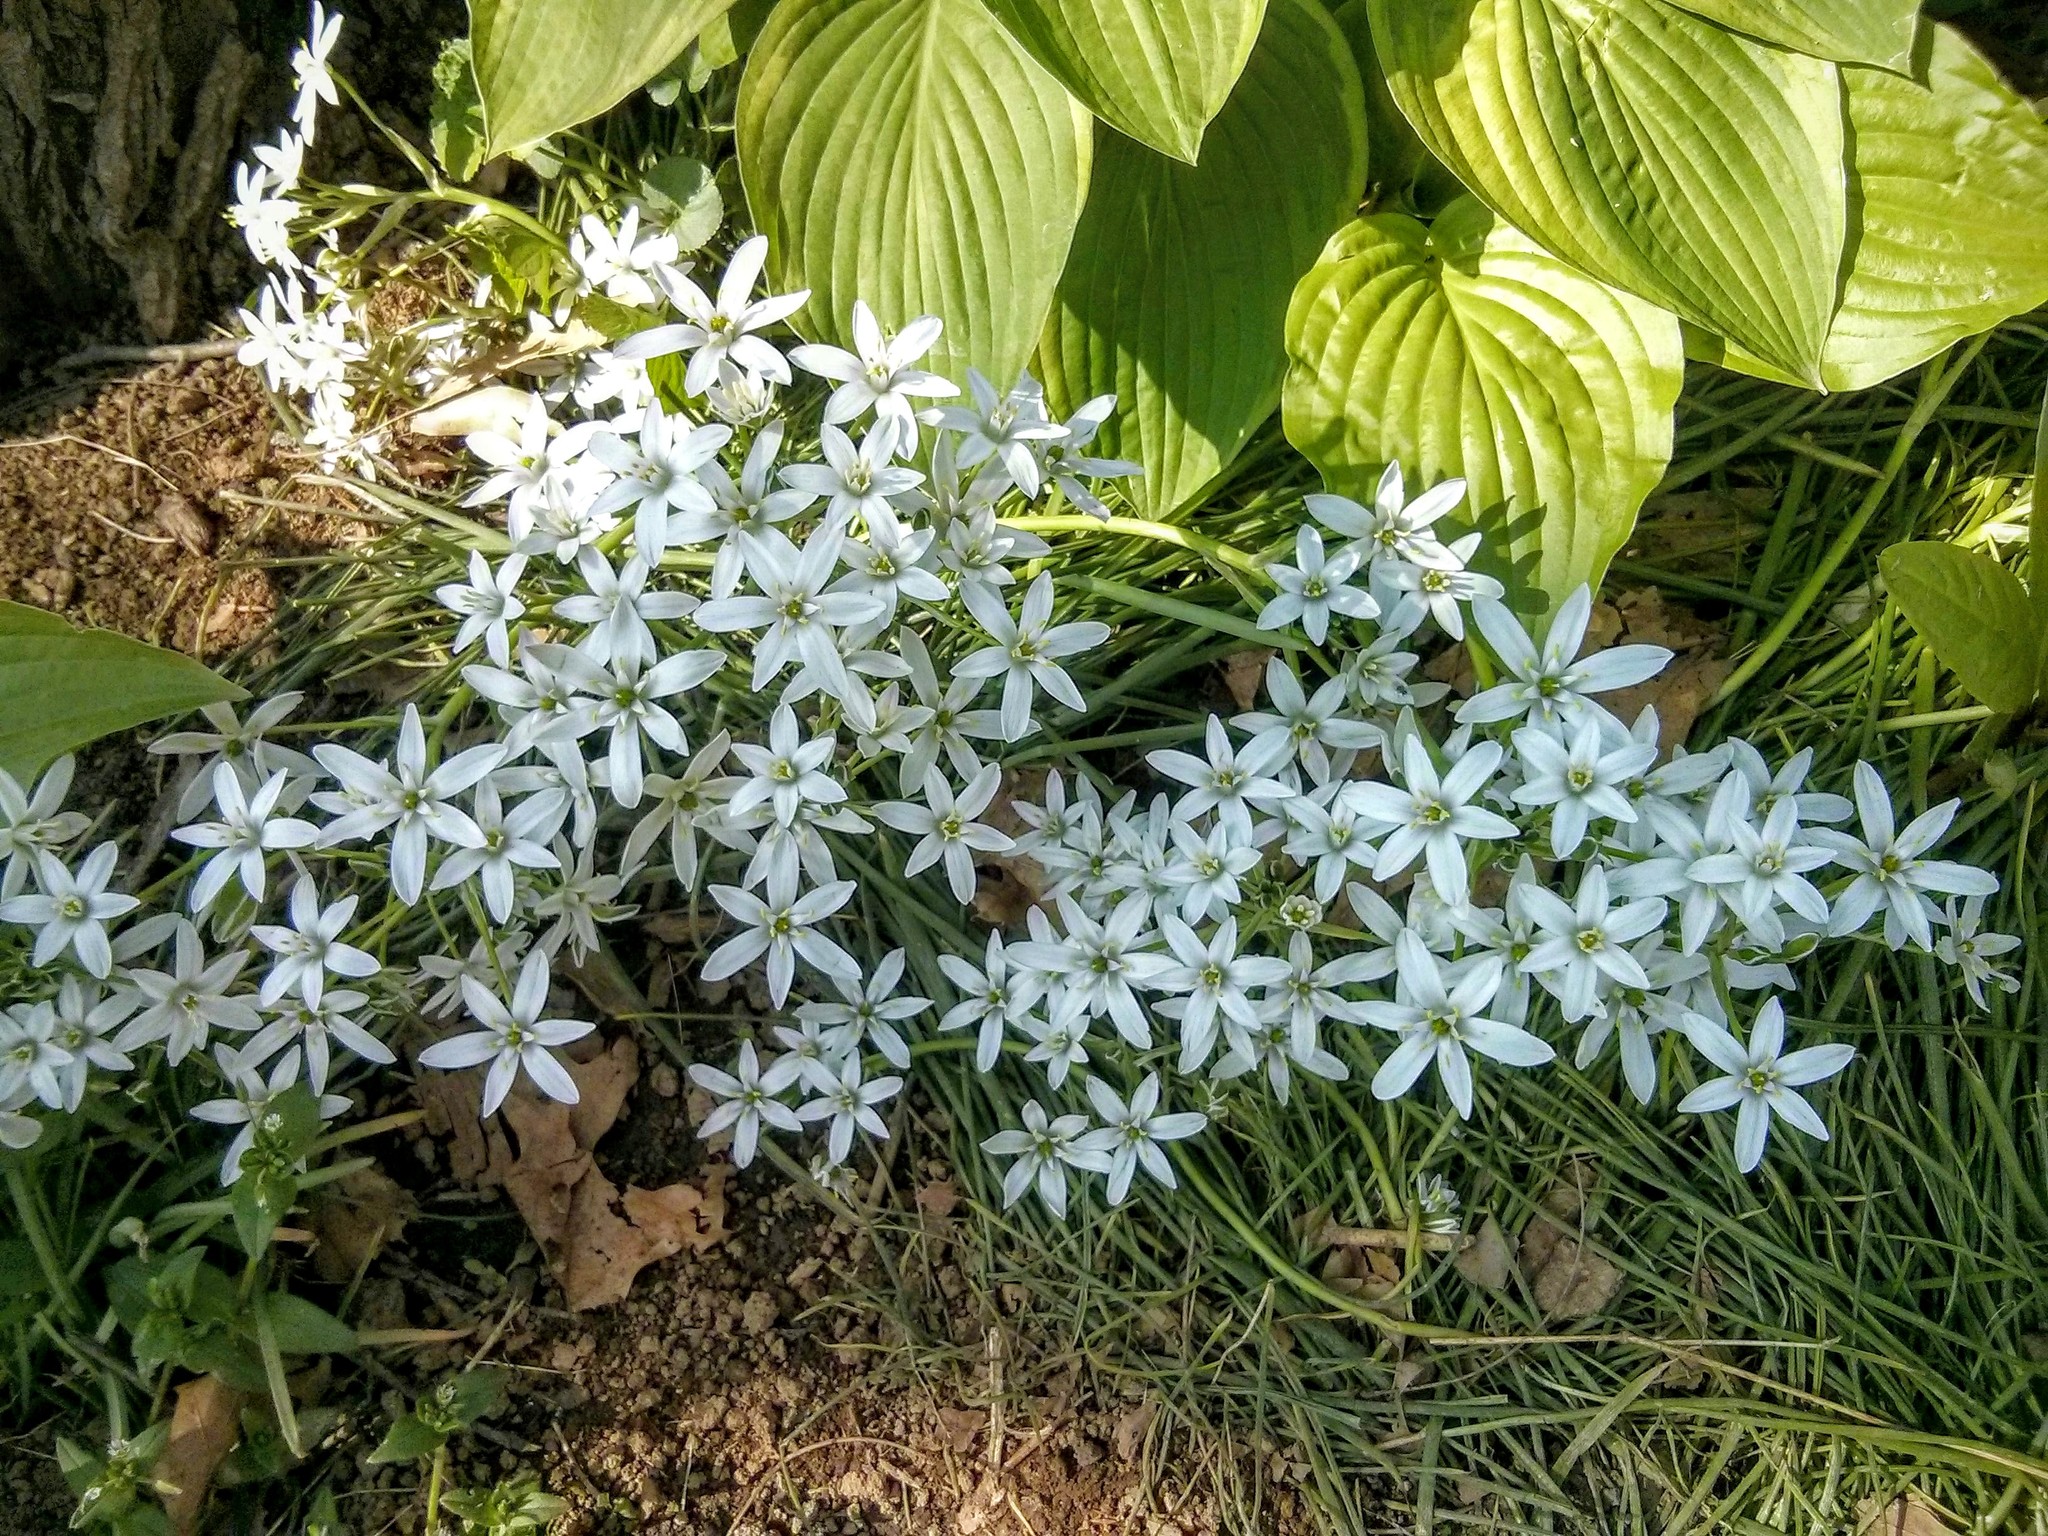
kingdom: Plantae
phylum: Tracheophyta
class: Liliopsida
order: Asparagales
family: Asparagaceae
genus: Ornithogalum
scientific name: Ornithogalum umbellatum
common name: Garden star-of-bethlehem
